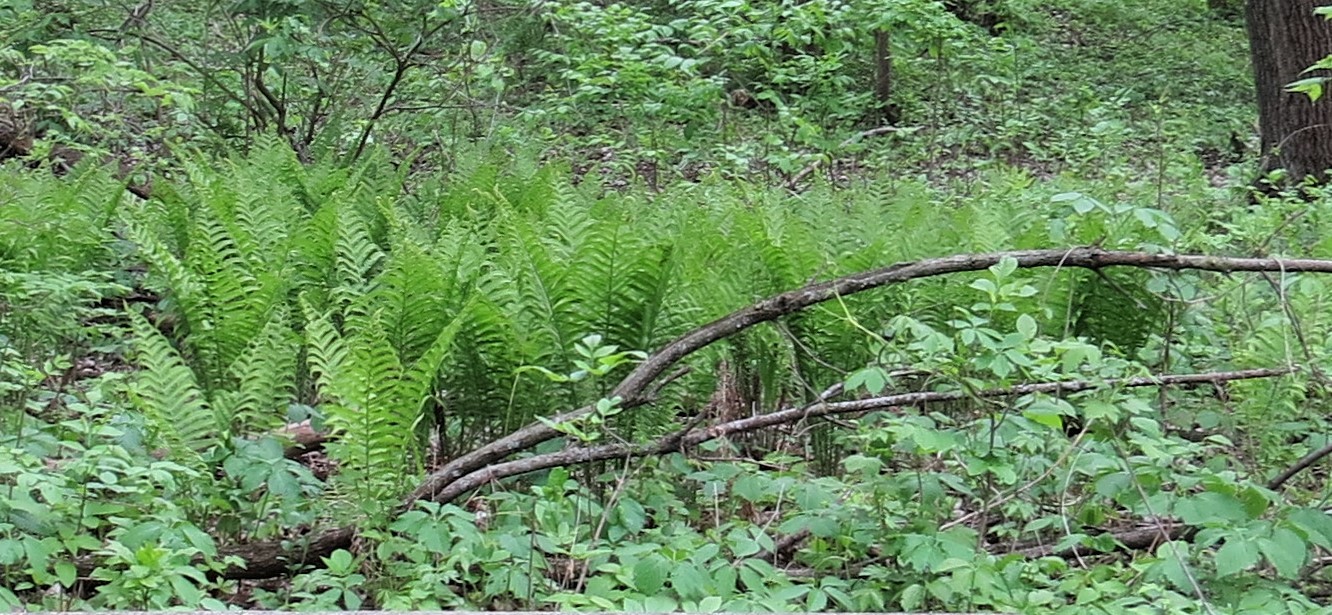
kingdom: Plantae
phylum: Tracheophyta
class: Polypodiopsida
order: Polypodiales
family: Onocleaceae
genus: Matteuccia
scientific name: Matteuccia struthiopteris
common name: Ostrich fern
